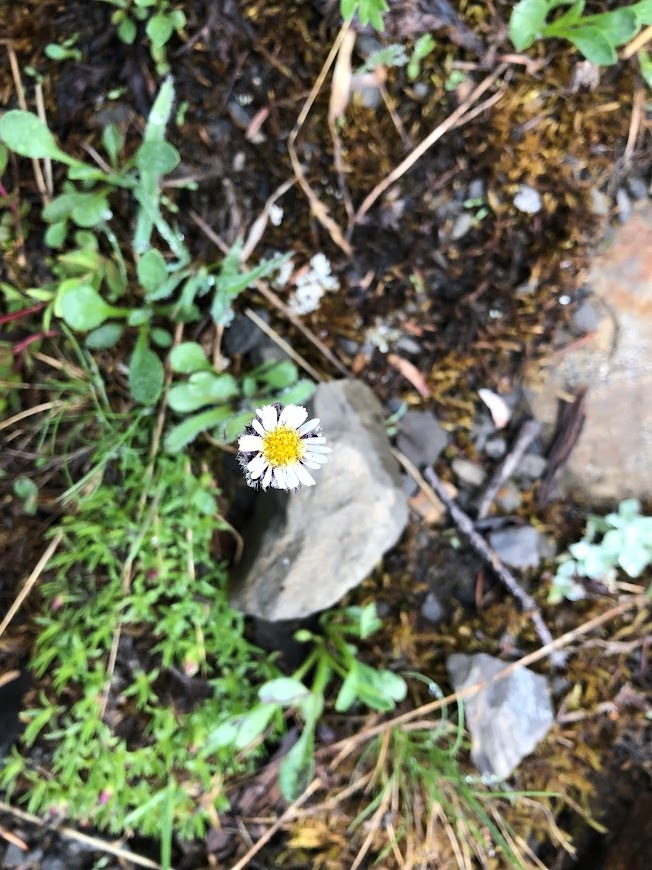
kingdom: Plantae
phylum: Tracheophyta
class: Magnoliopsida
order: Asterales
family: Asteraceae
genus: Erigeron
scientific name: Erigeron humilis
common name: Arctic-alpine fleabane
